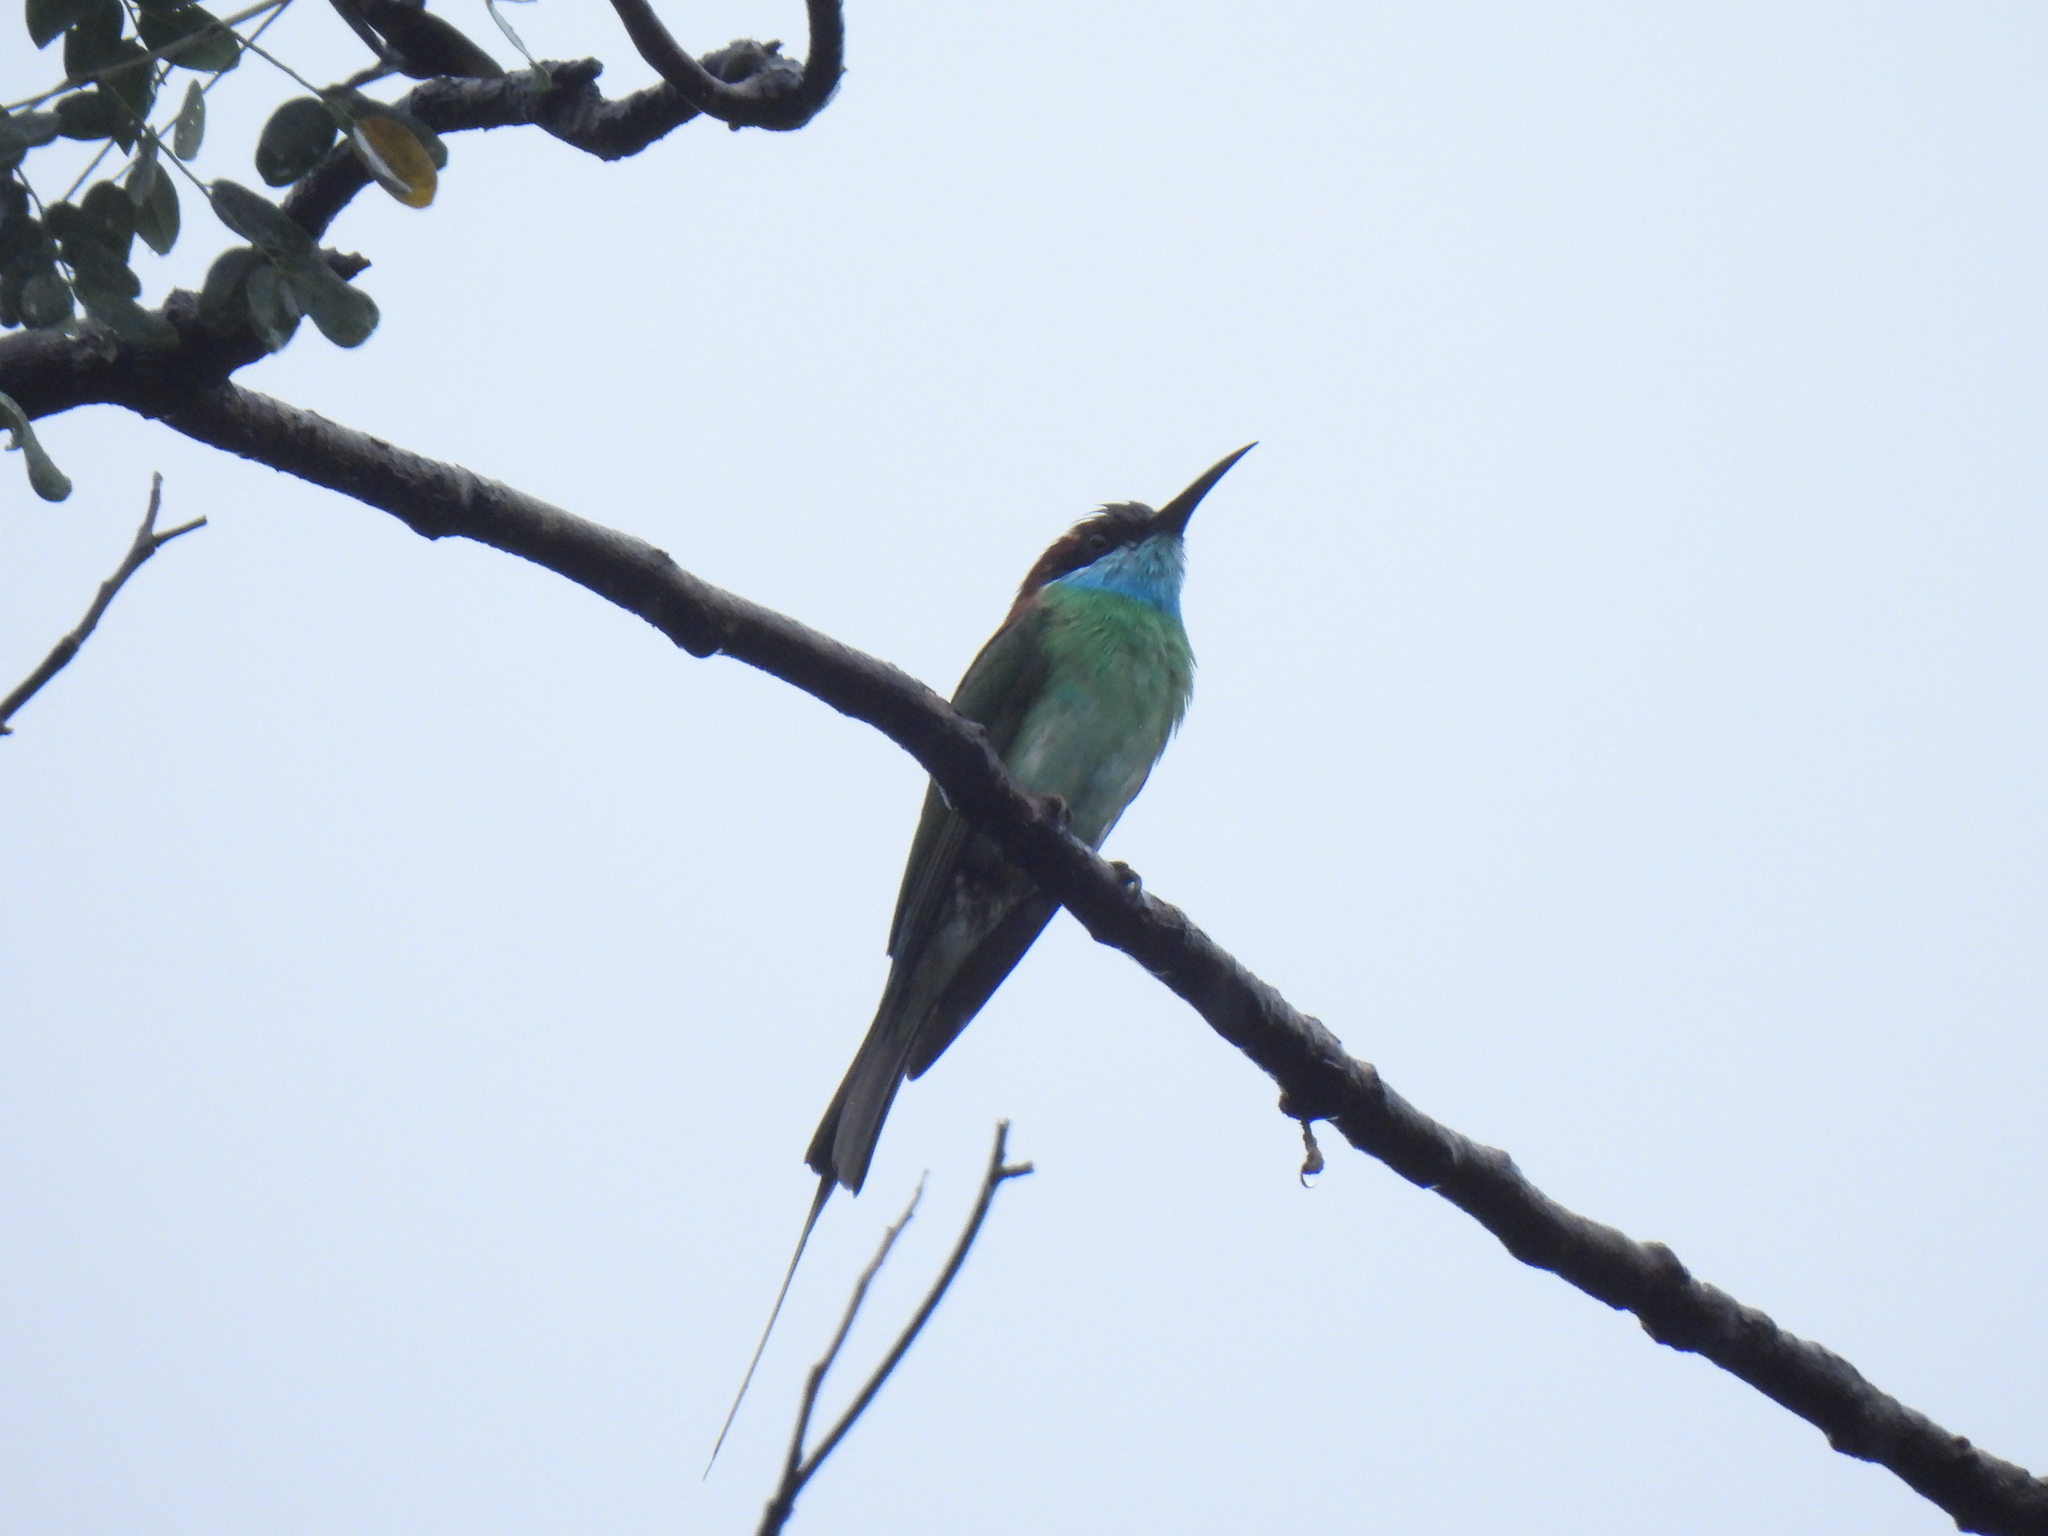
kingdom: Animalia
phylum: Chordata
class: Aves
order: Coraciiformes
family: Meropidae
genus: Merops
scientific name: Merops viridis
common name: Blue-throated bee-eater
